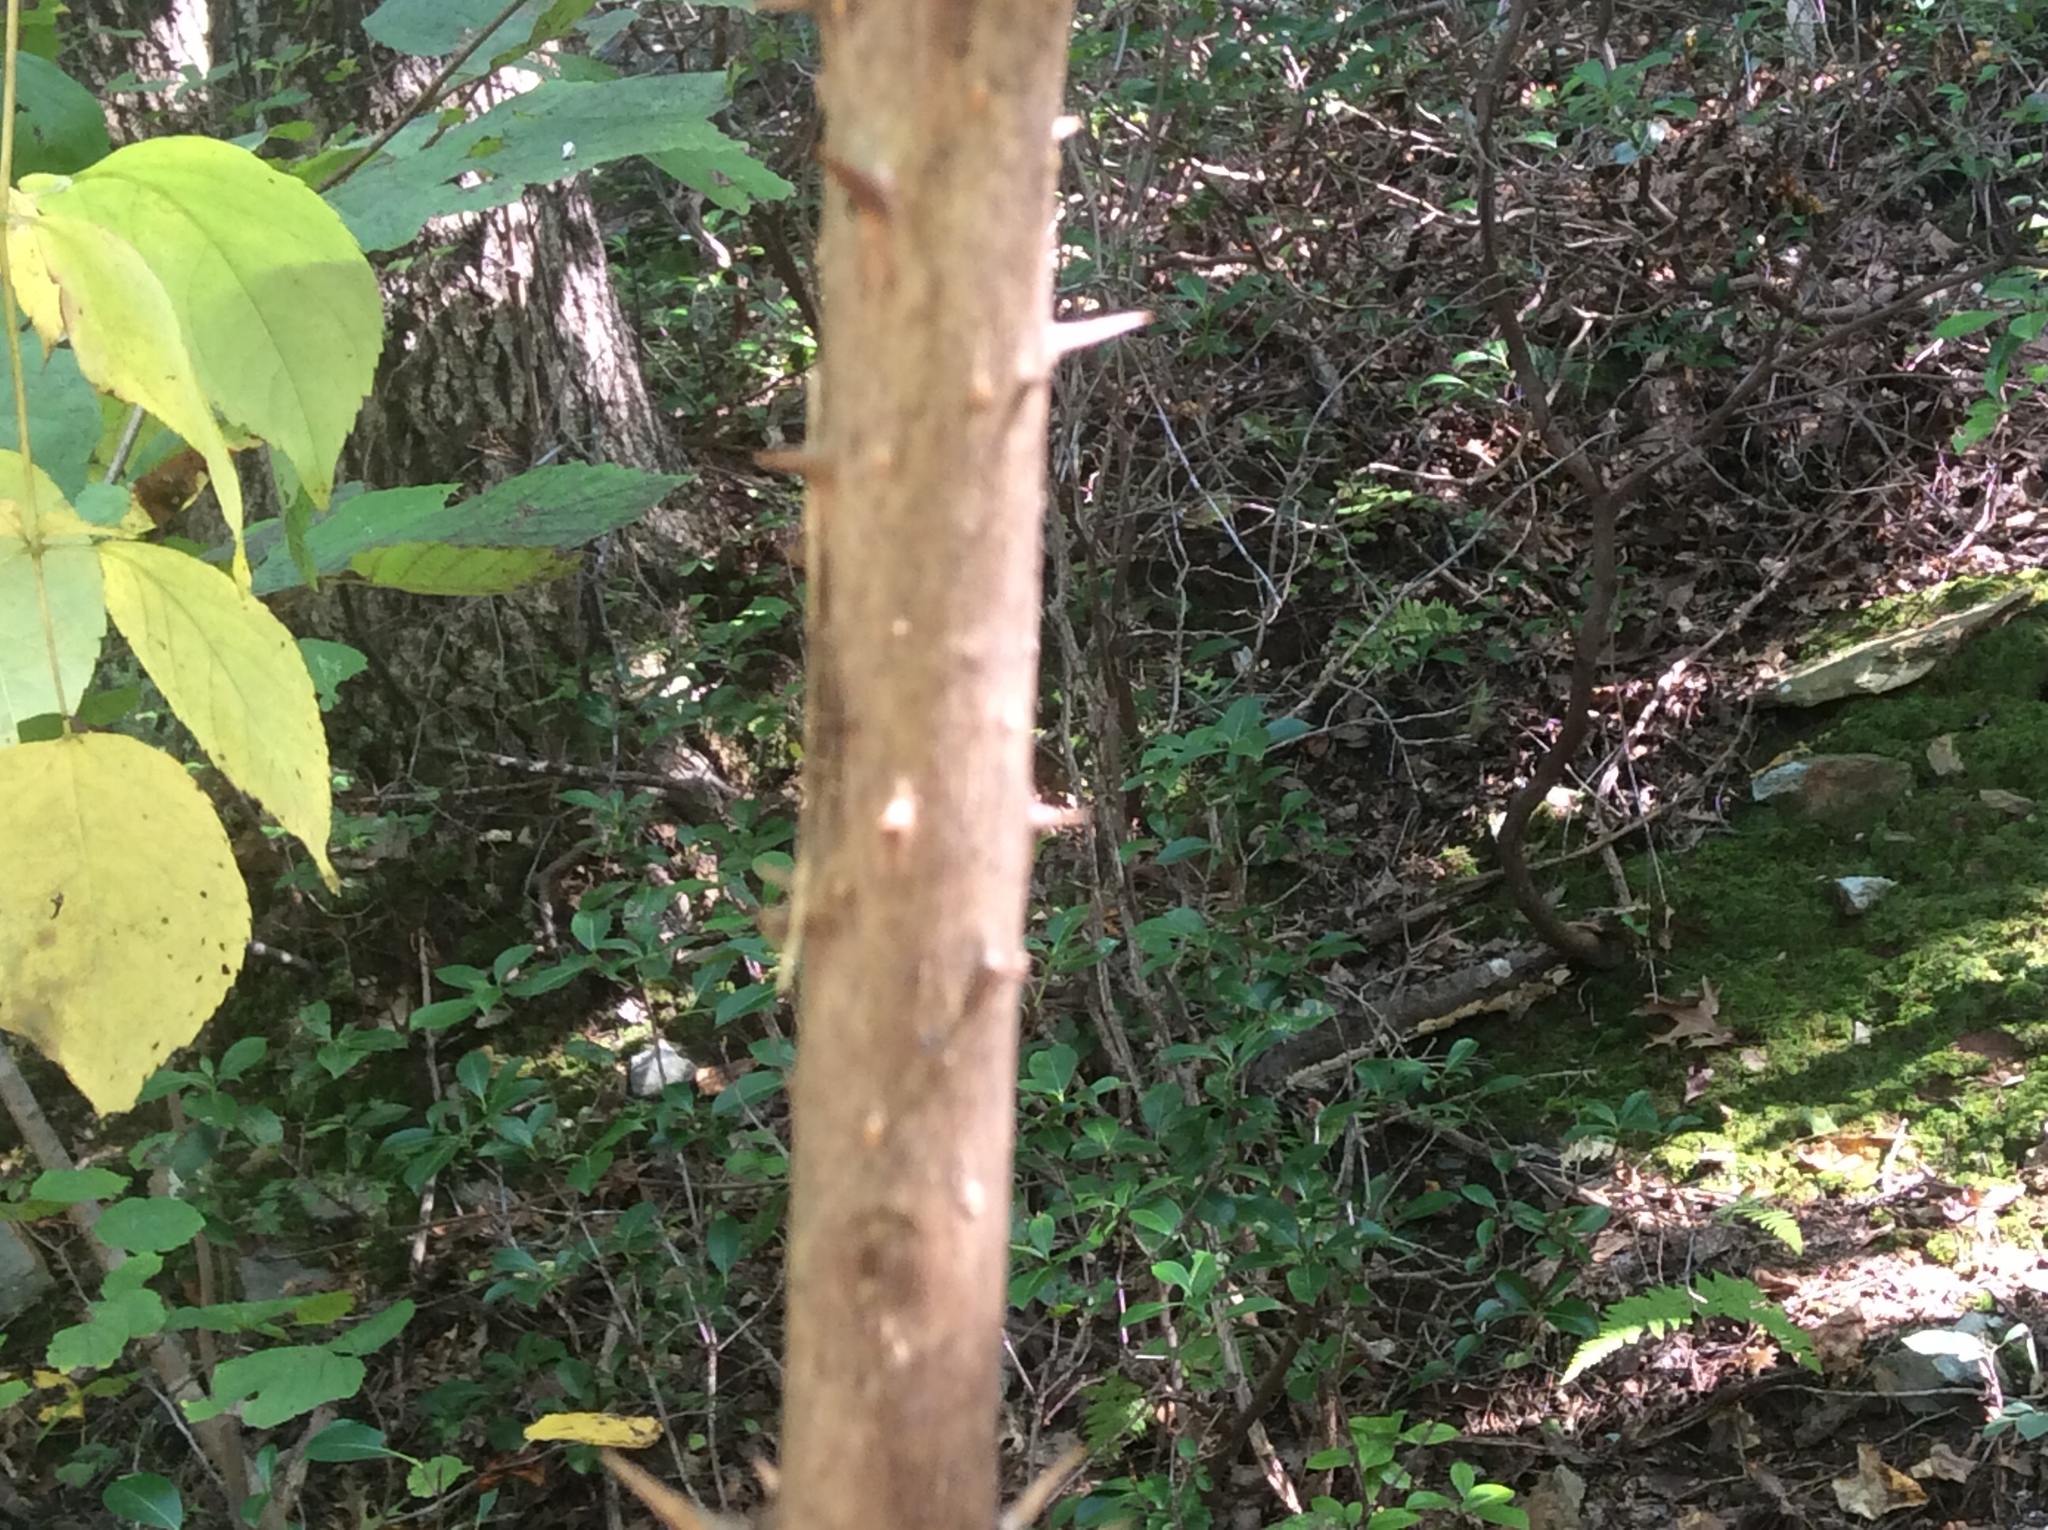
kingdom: Plantae
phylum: Tracheophyta
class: Magnoliopsida
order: Apiales
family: Araliaceae
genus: Aralia
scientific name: Aralia spinosa
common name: Hercules'-club
